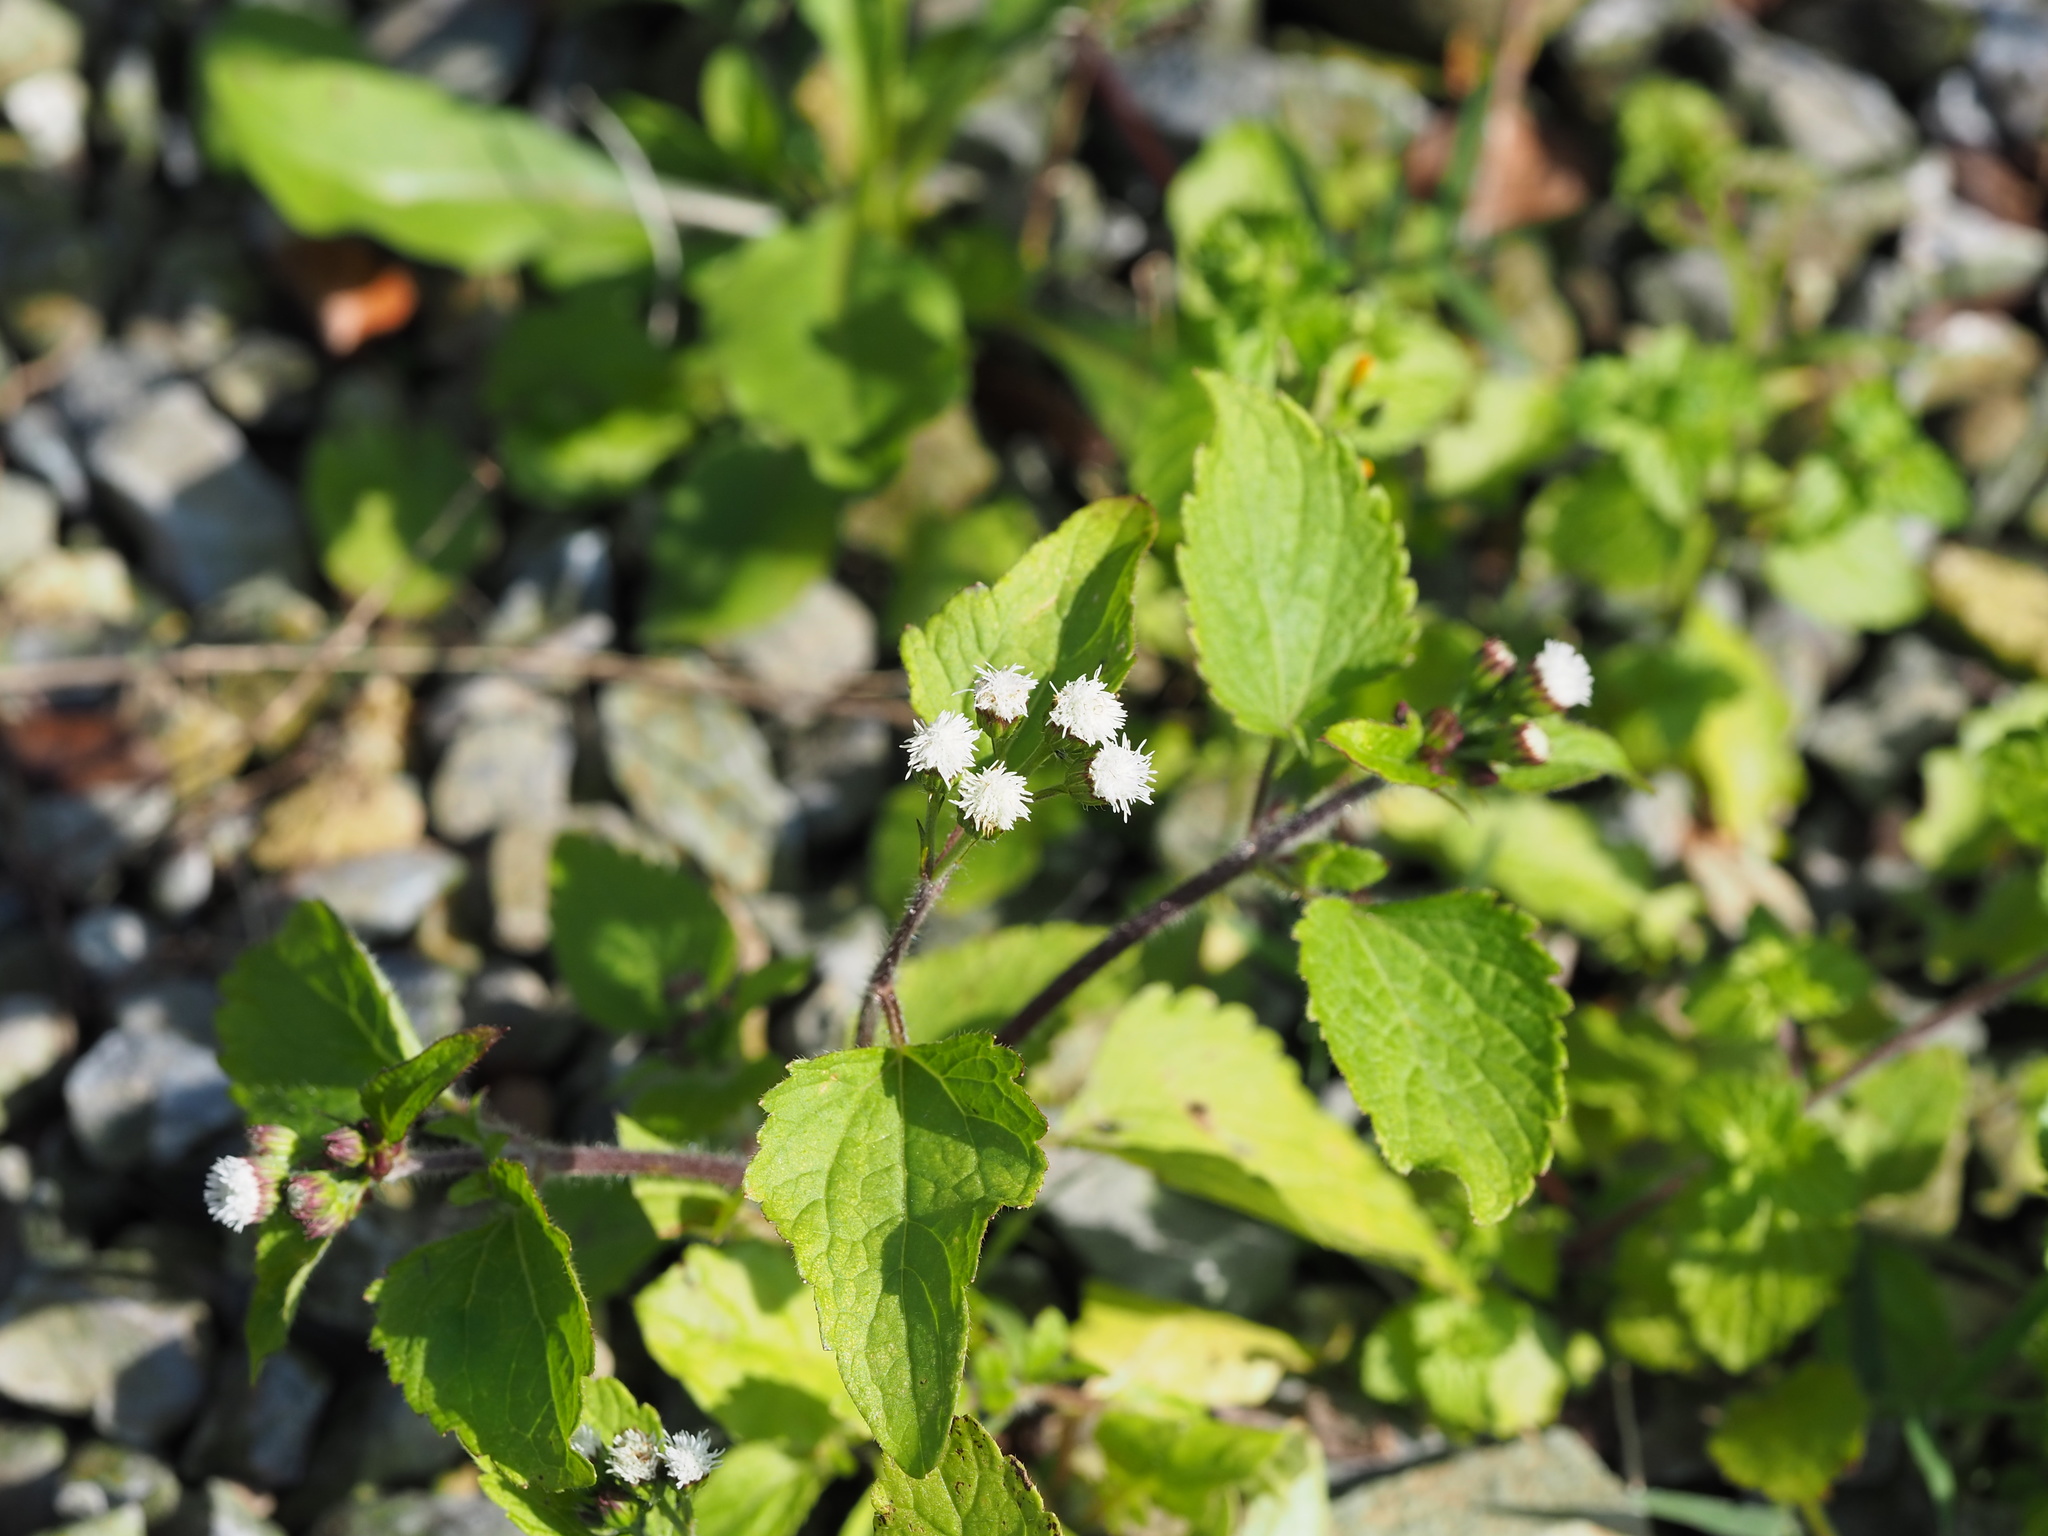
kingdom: Plantae
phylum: Tracheophyta
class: Magnoliopsida
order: Asterales
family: Asteraceae
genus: Ageratum
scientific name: Ageratum conyzoides
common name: Tropical whiteweed
